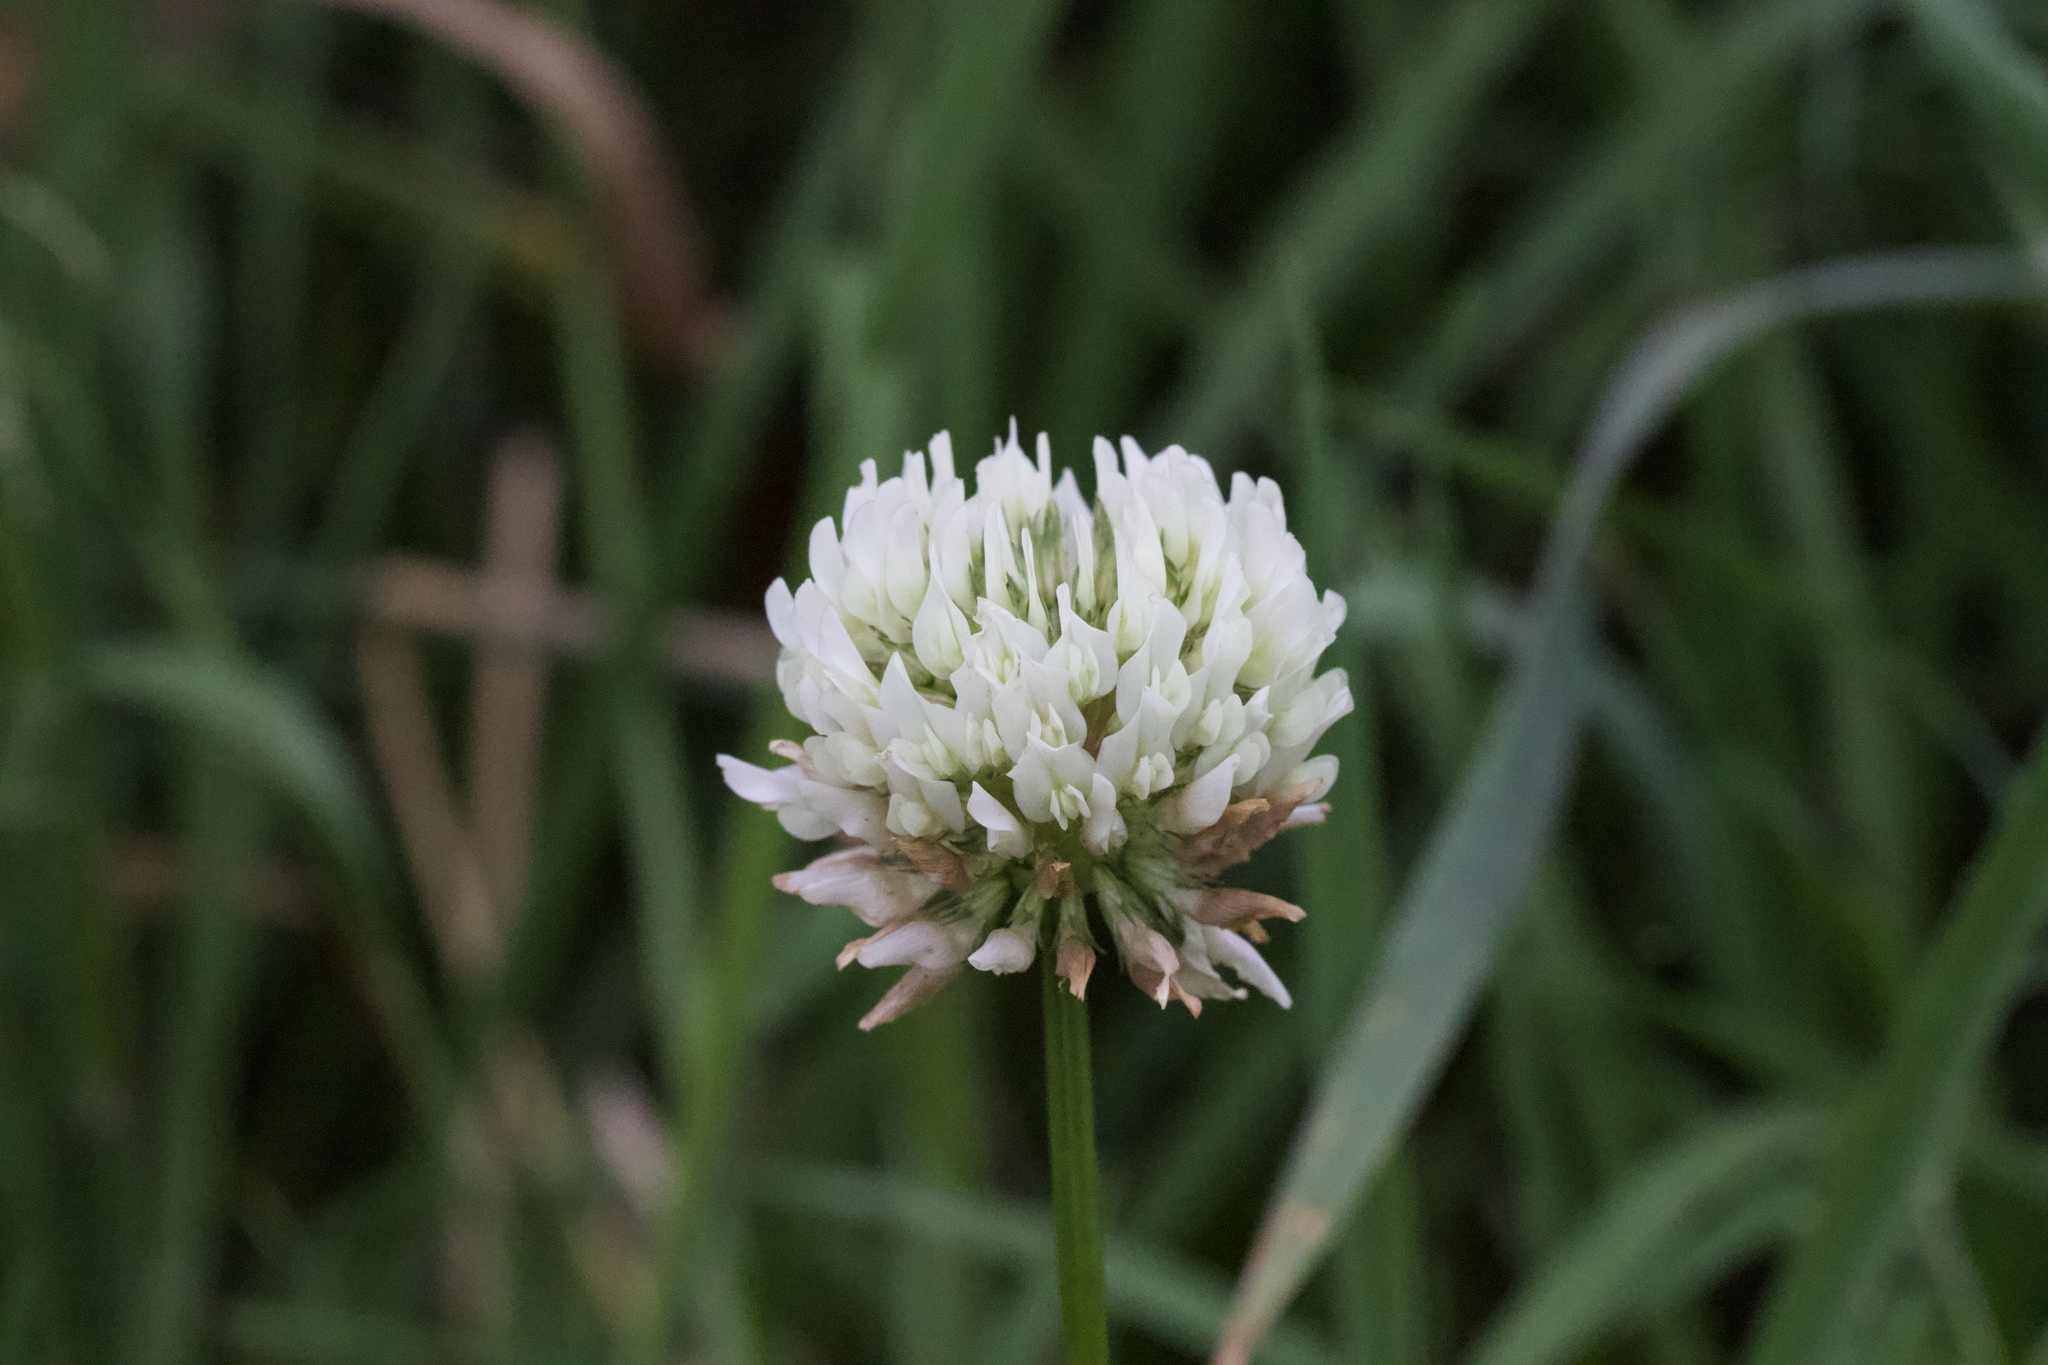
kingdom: Plantae
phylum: Tracheophyta
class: Magnoliopsida
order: Fabales
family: Fabaceae
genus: Trifolium
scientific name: Trifolium repens
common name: White clover
